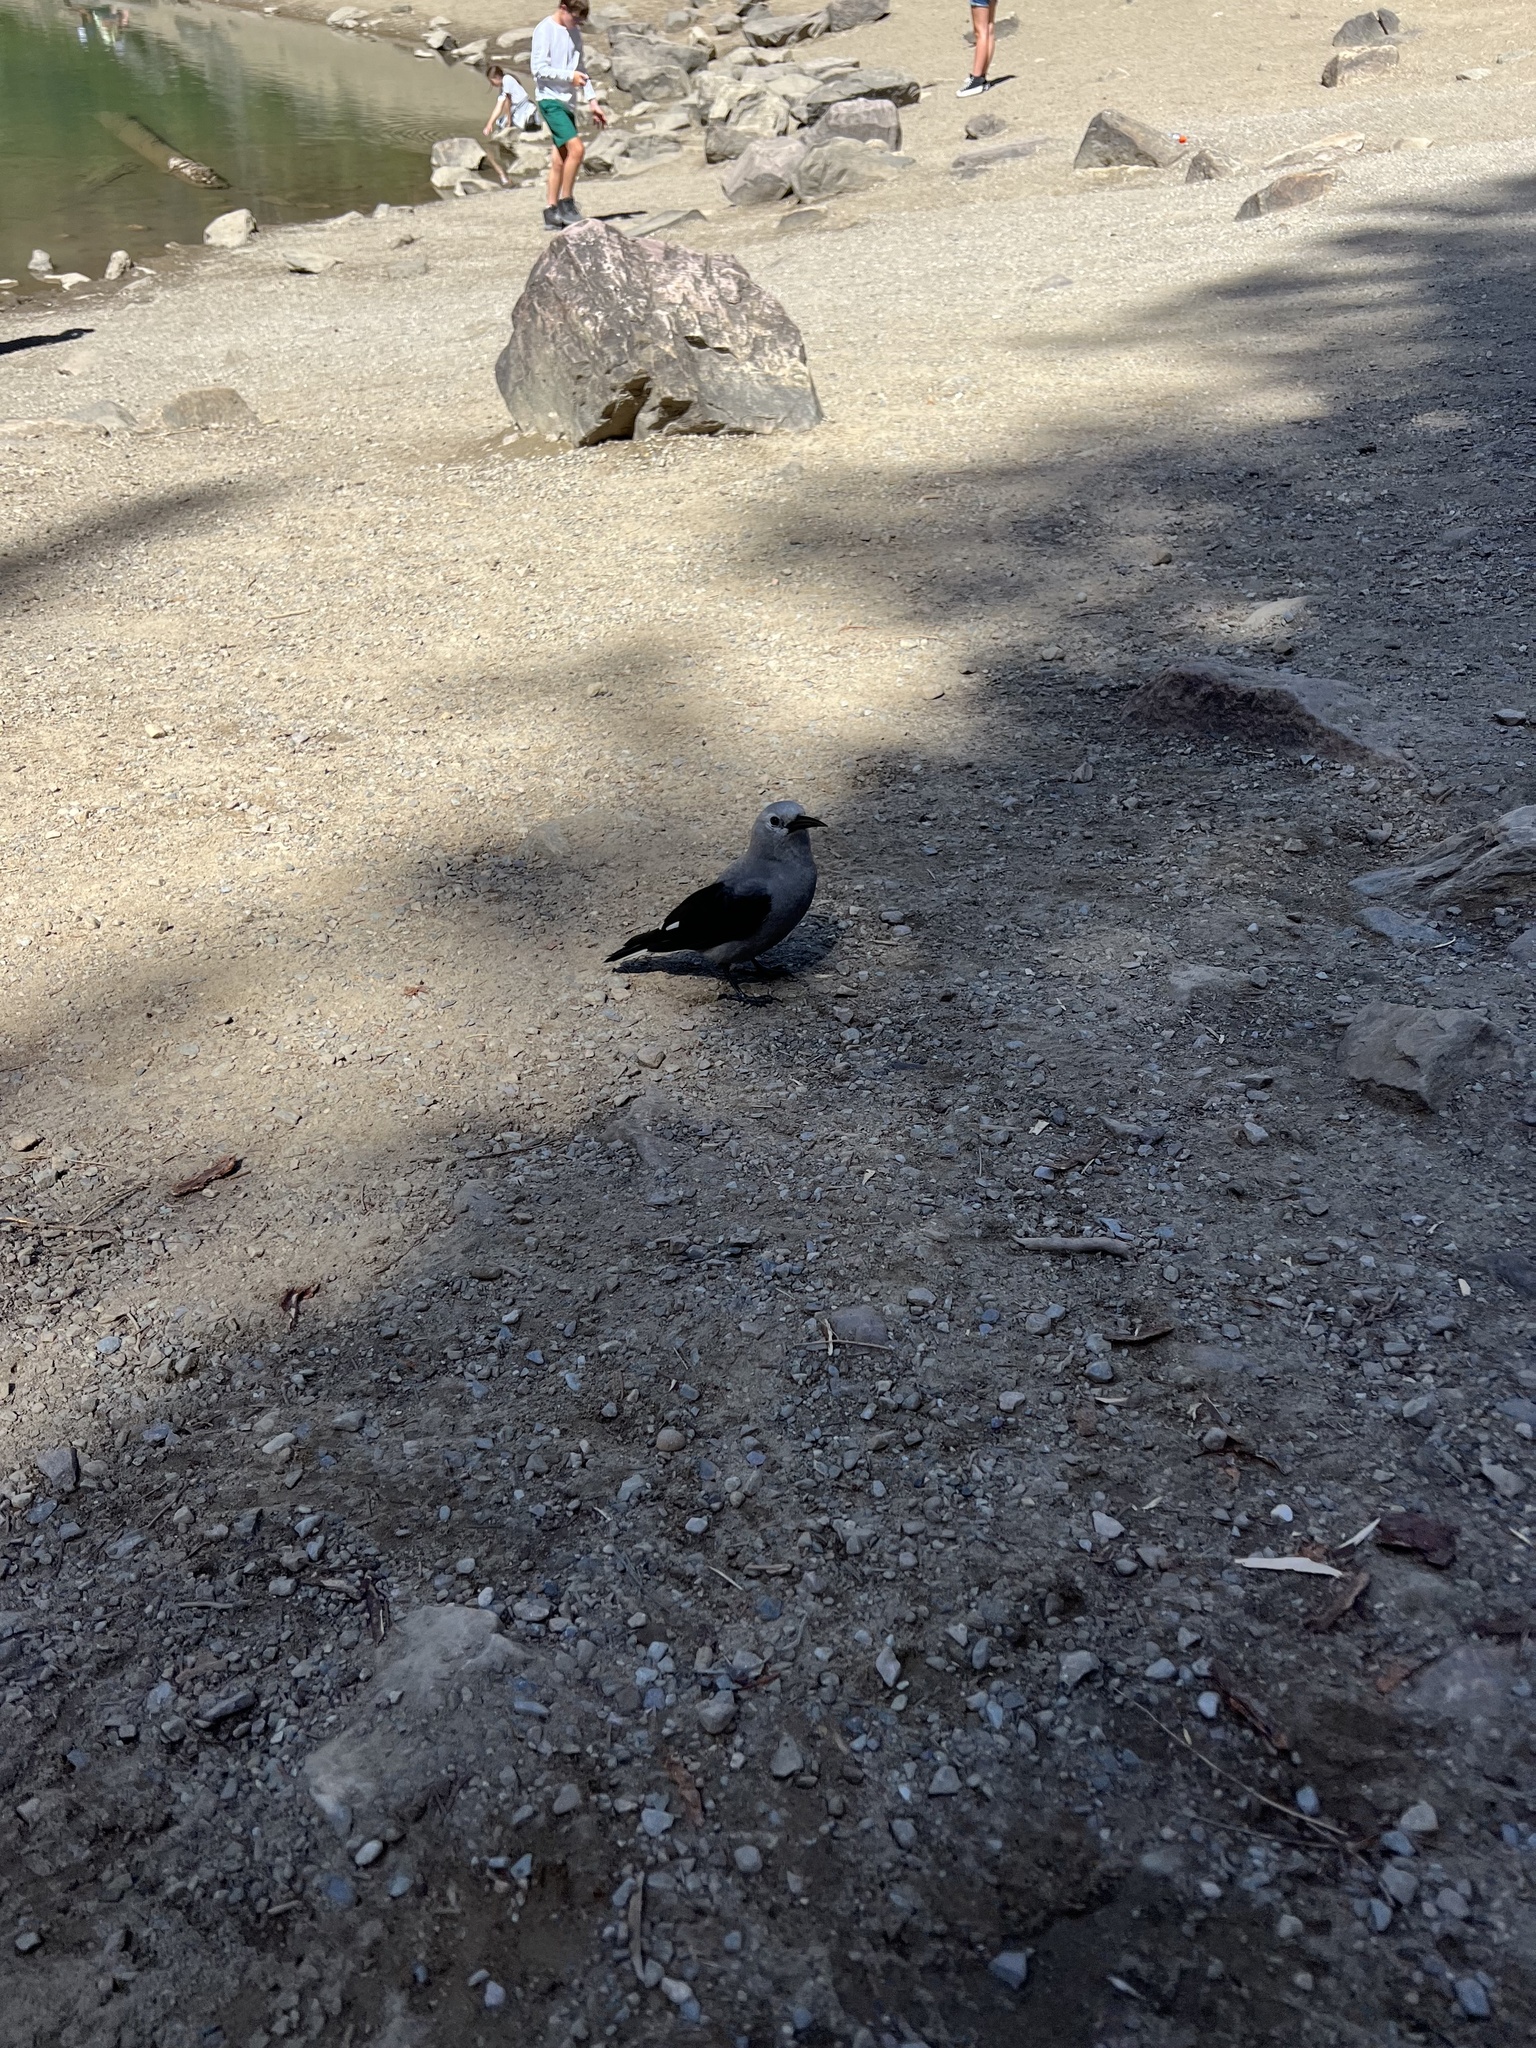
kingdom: Animalia
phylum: Chordata
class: Aves
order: Passeriformes
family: Corvidae
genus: Nucifraga
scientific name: Nucifraga columbiana
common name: Clark's nutcracker
